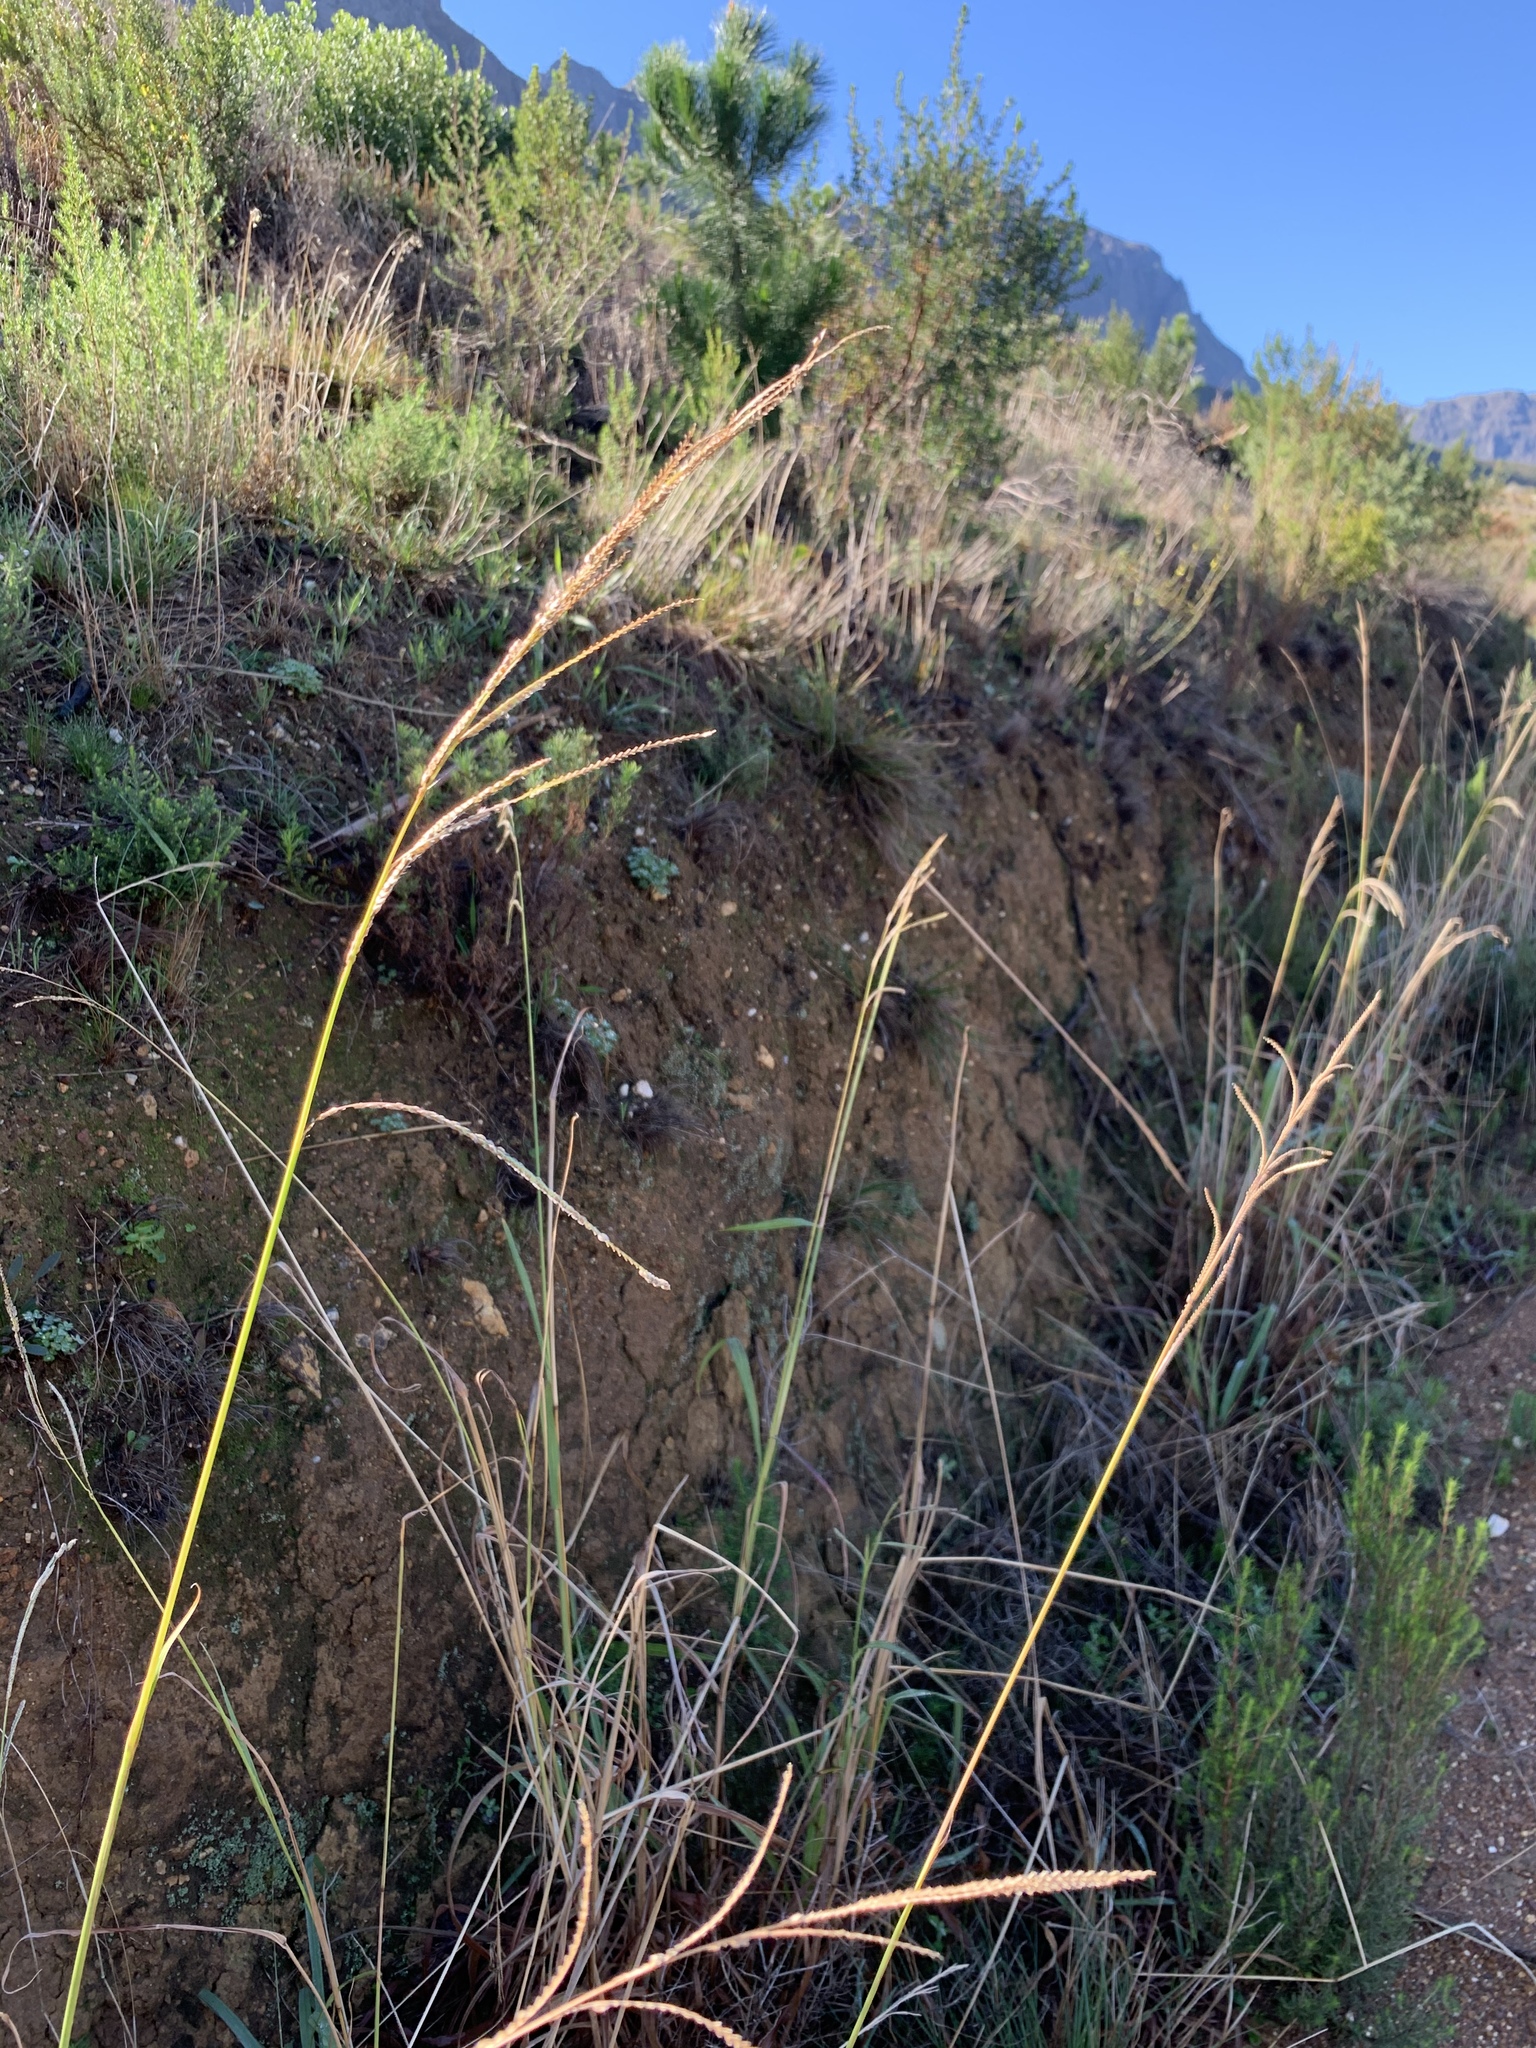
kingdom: Plantae
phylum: Tracheophyta
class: Liliopsida
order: Poales
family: Poaceae
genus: Paspalum
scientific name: Paspalum urvillei
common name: Vasey's grass
